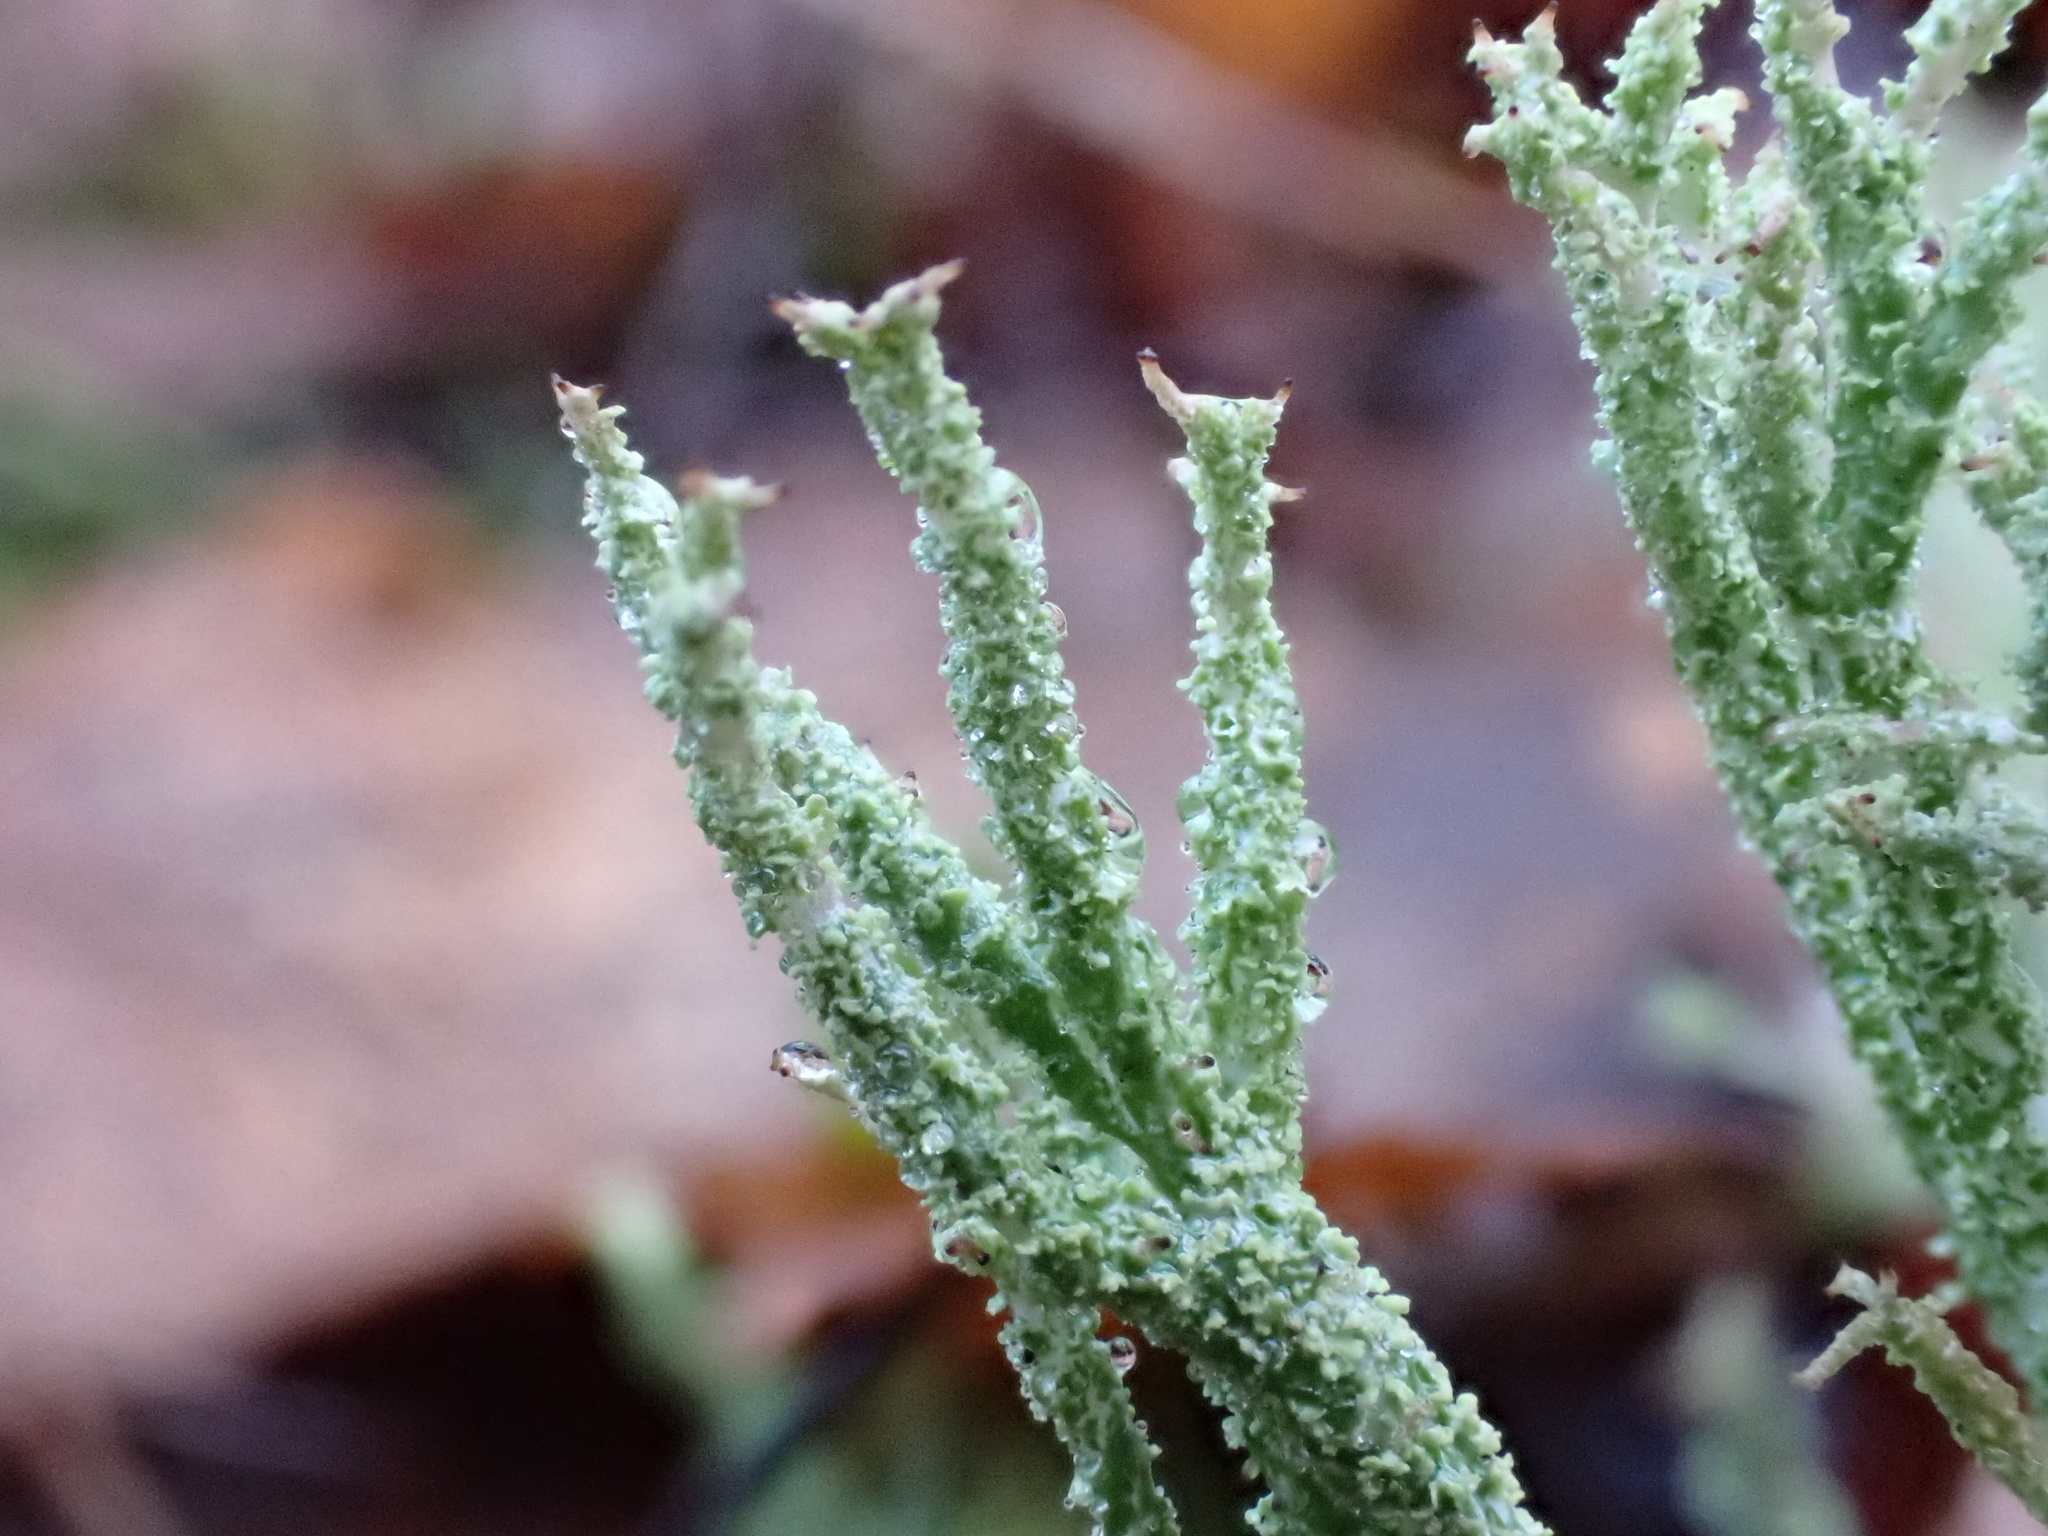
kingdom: Fungi
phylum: Ascomycota
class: Lecanoromycetes
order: Lecanorales
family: Cladoniaceae
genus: Cladonia
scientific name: Cladonia scabriuscula
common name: Mealy forked clad lichen
